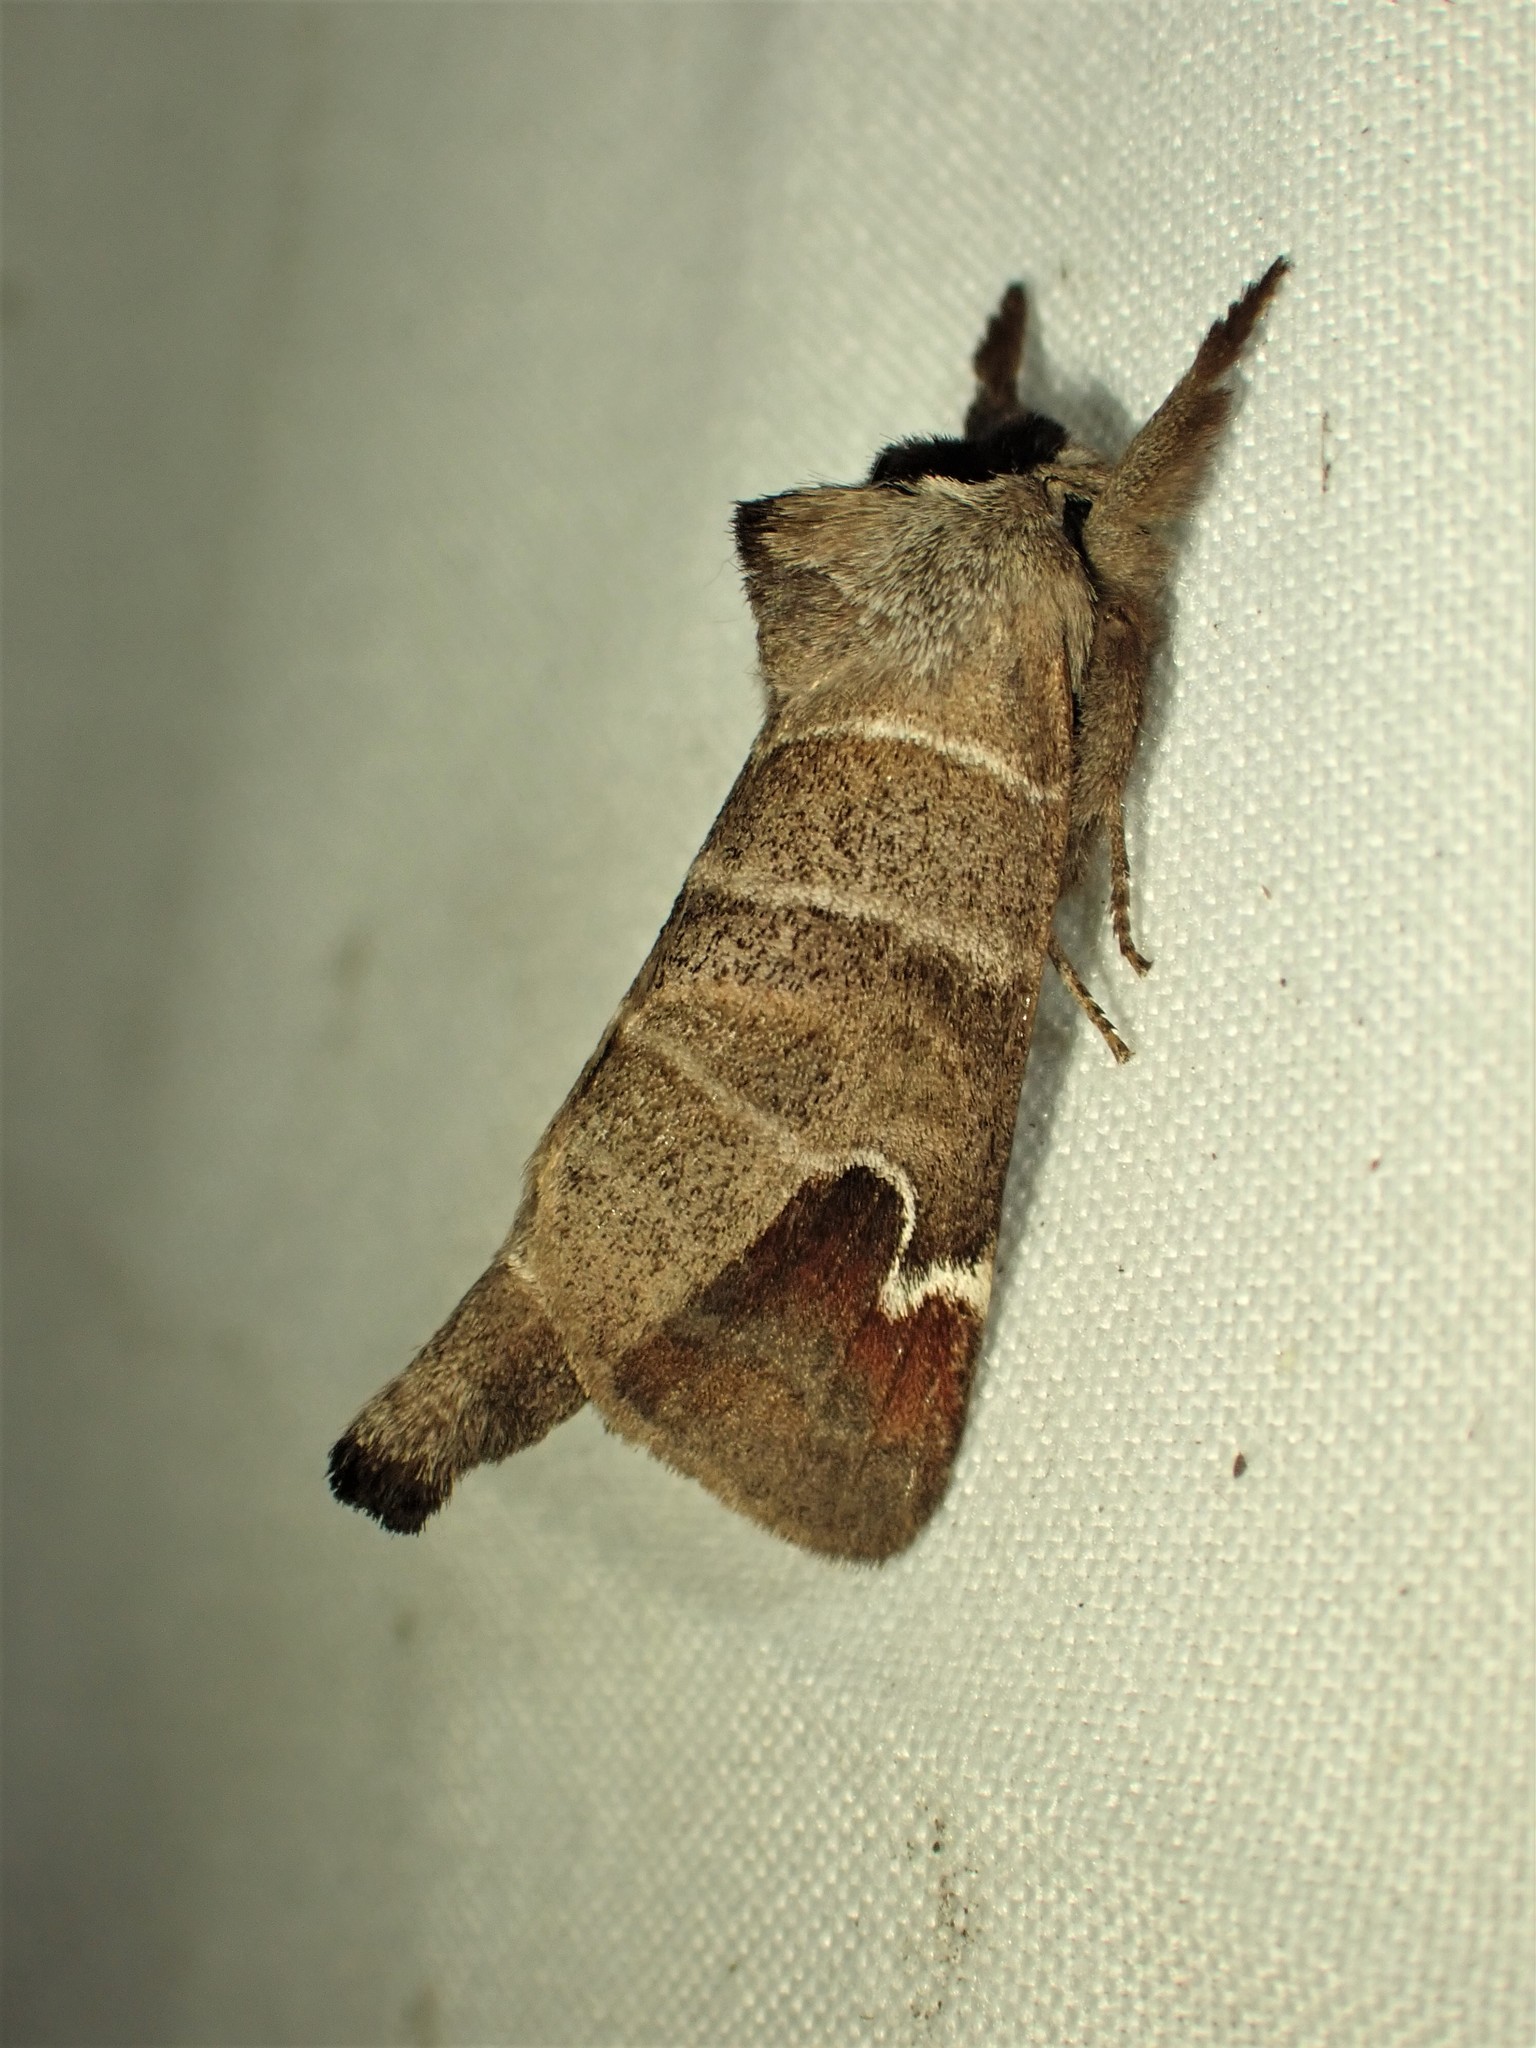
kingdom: Animalia
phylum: Arthropoda
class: Insecta
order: Lepidoptera
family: Notodontidae
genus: Clostera
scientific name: Clostera albosigma
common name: Sigmoid prominent
